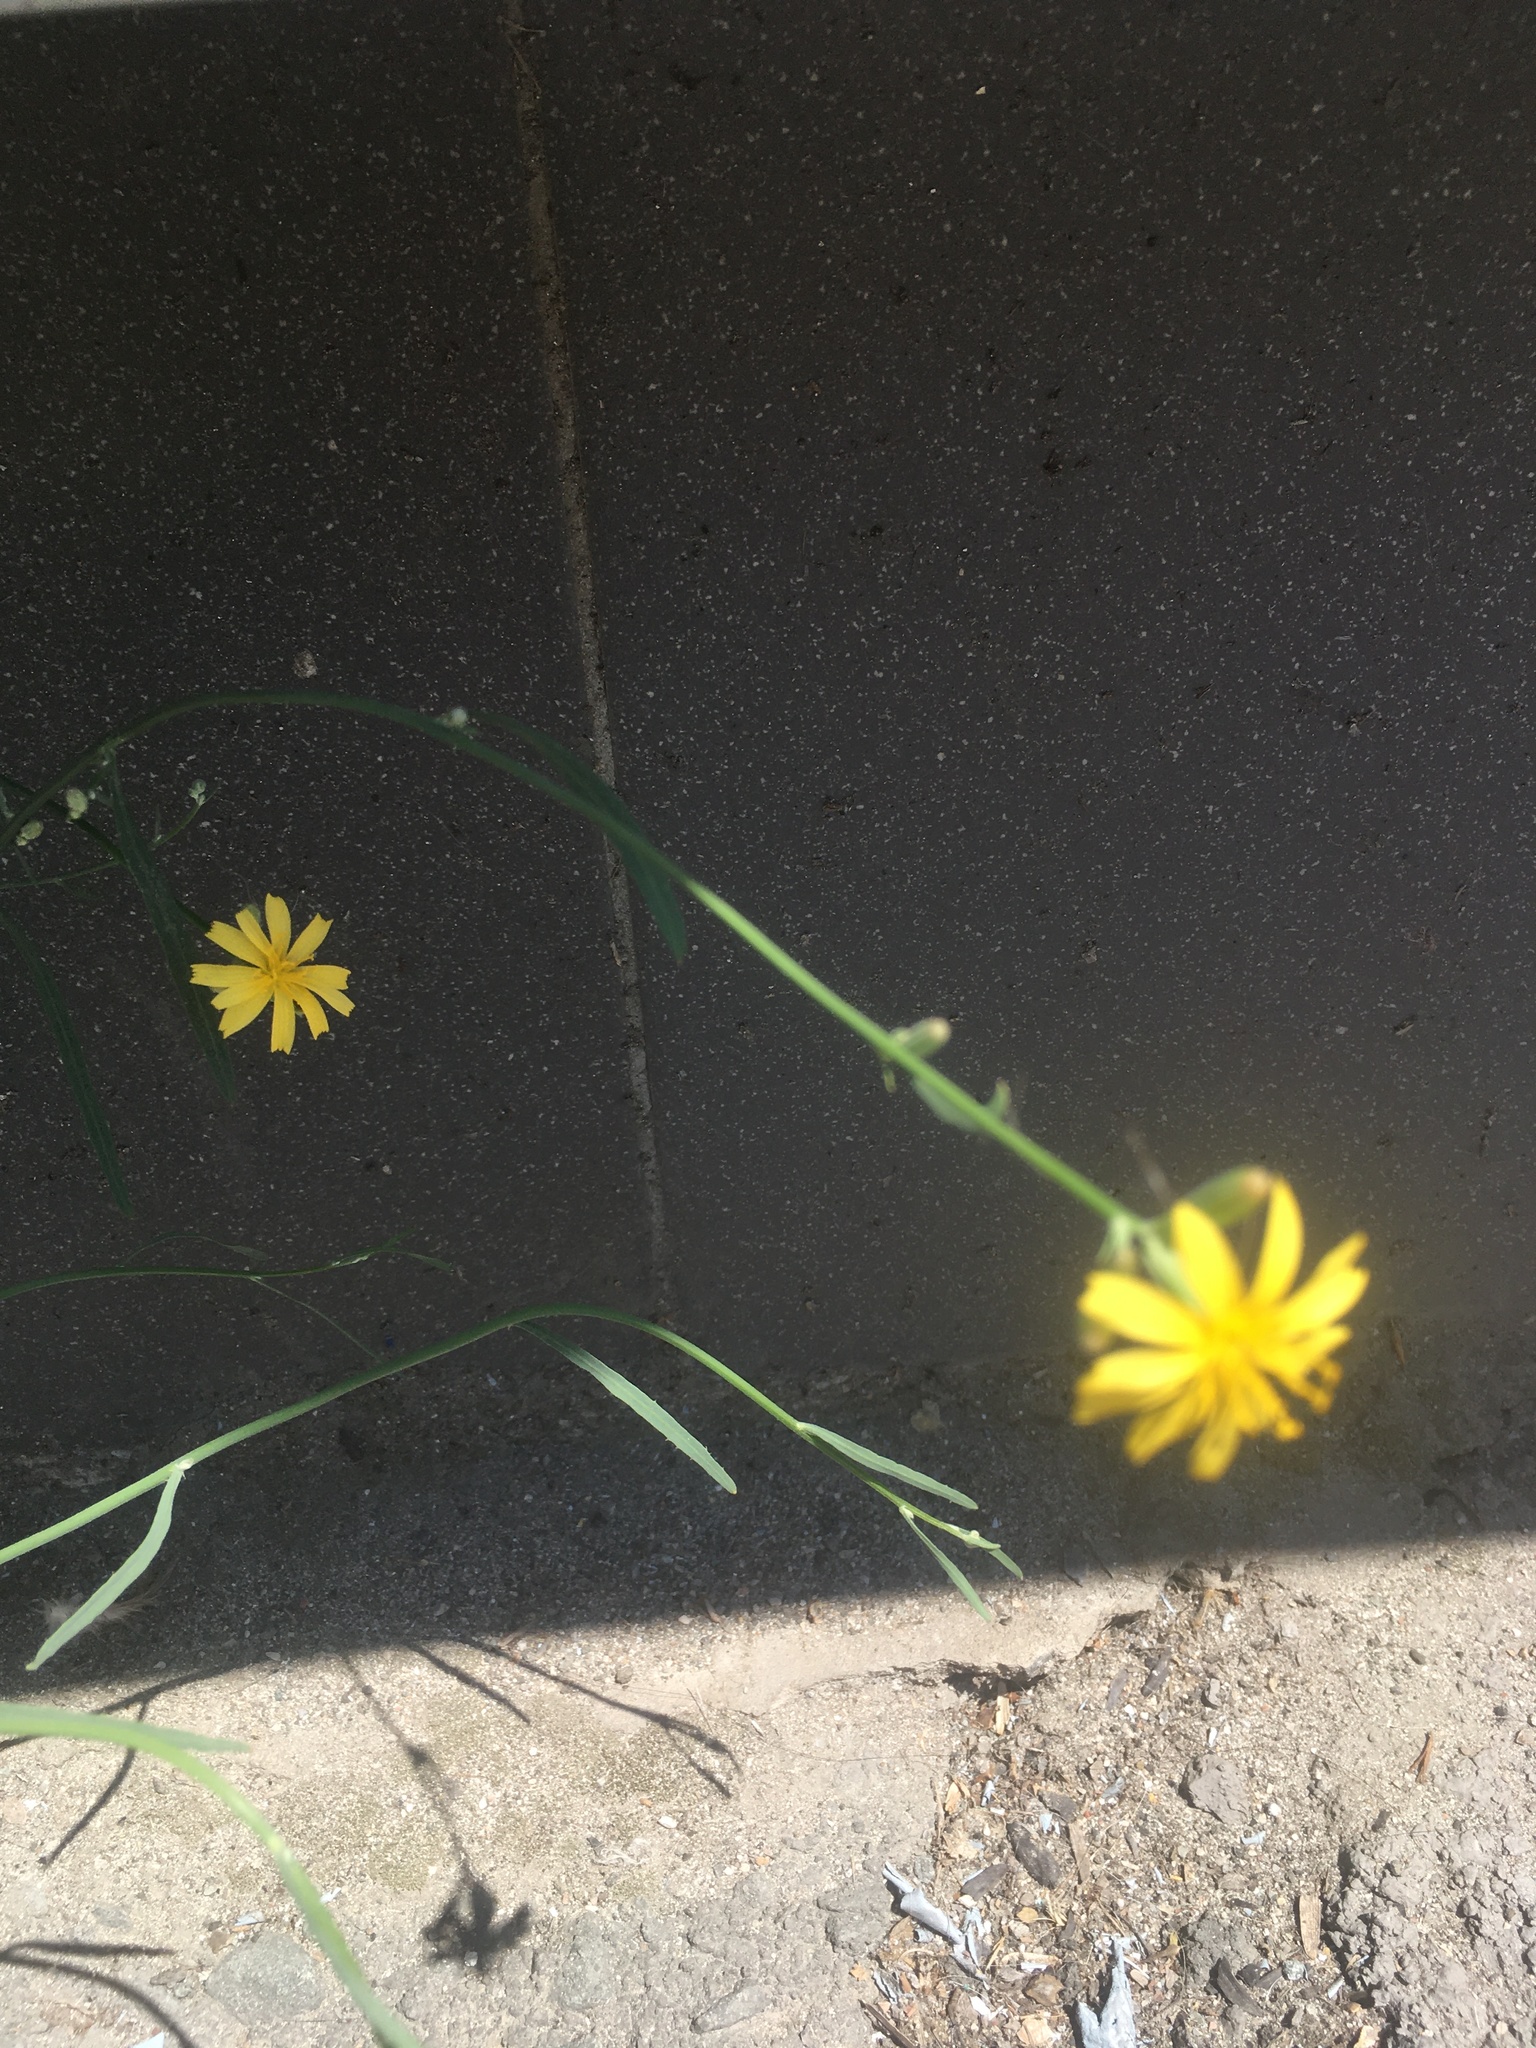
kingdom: Plantae
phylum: Tracheophyta
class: Magnoliopsida
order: Asterales
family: Asteraceae
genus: Chondrilla
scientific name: Chondrilla juncea
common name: Skeleton weed
